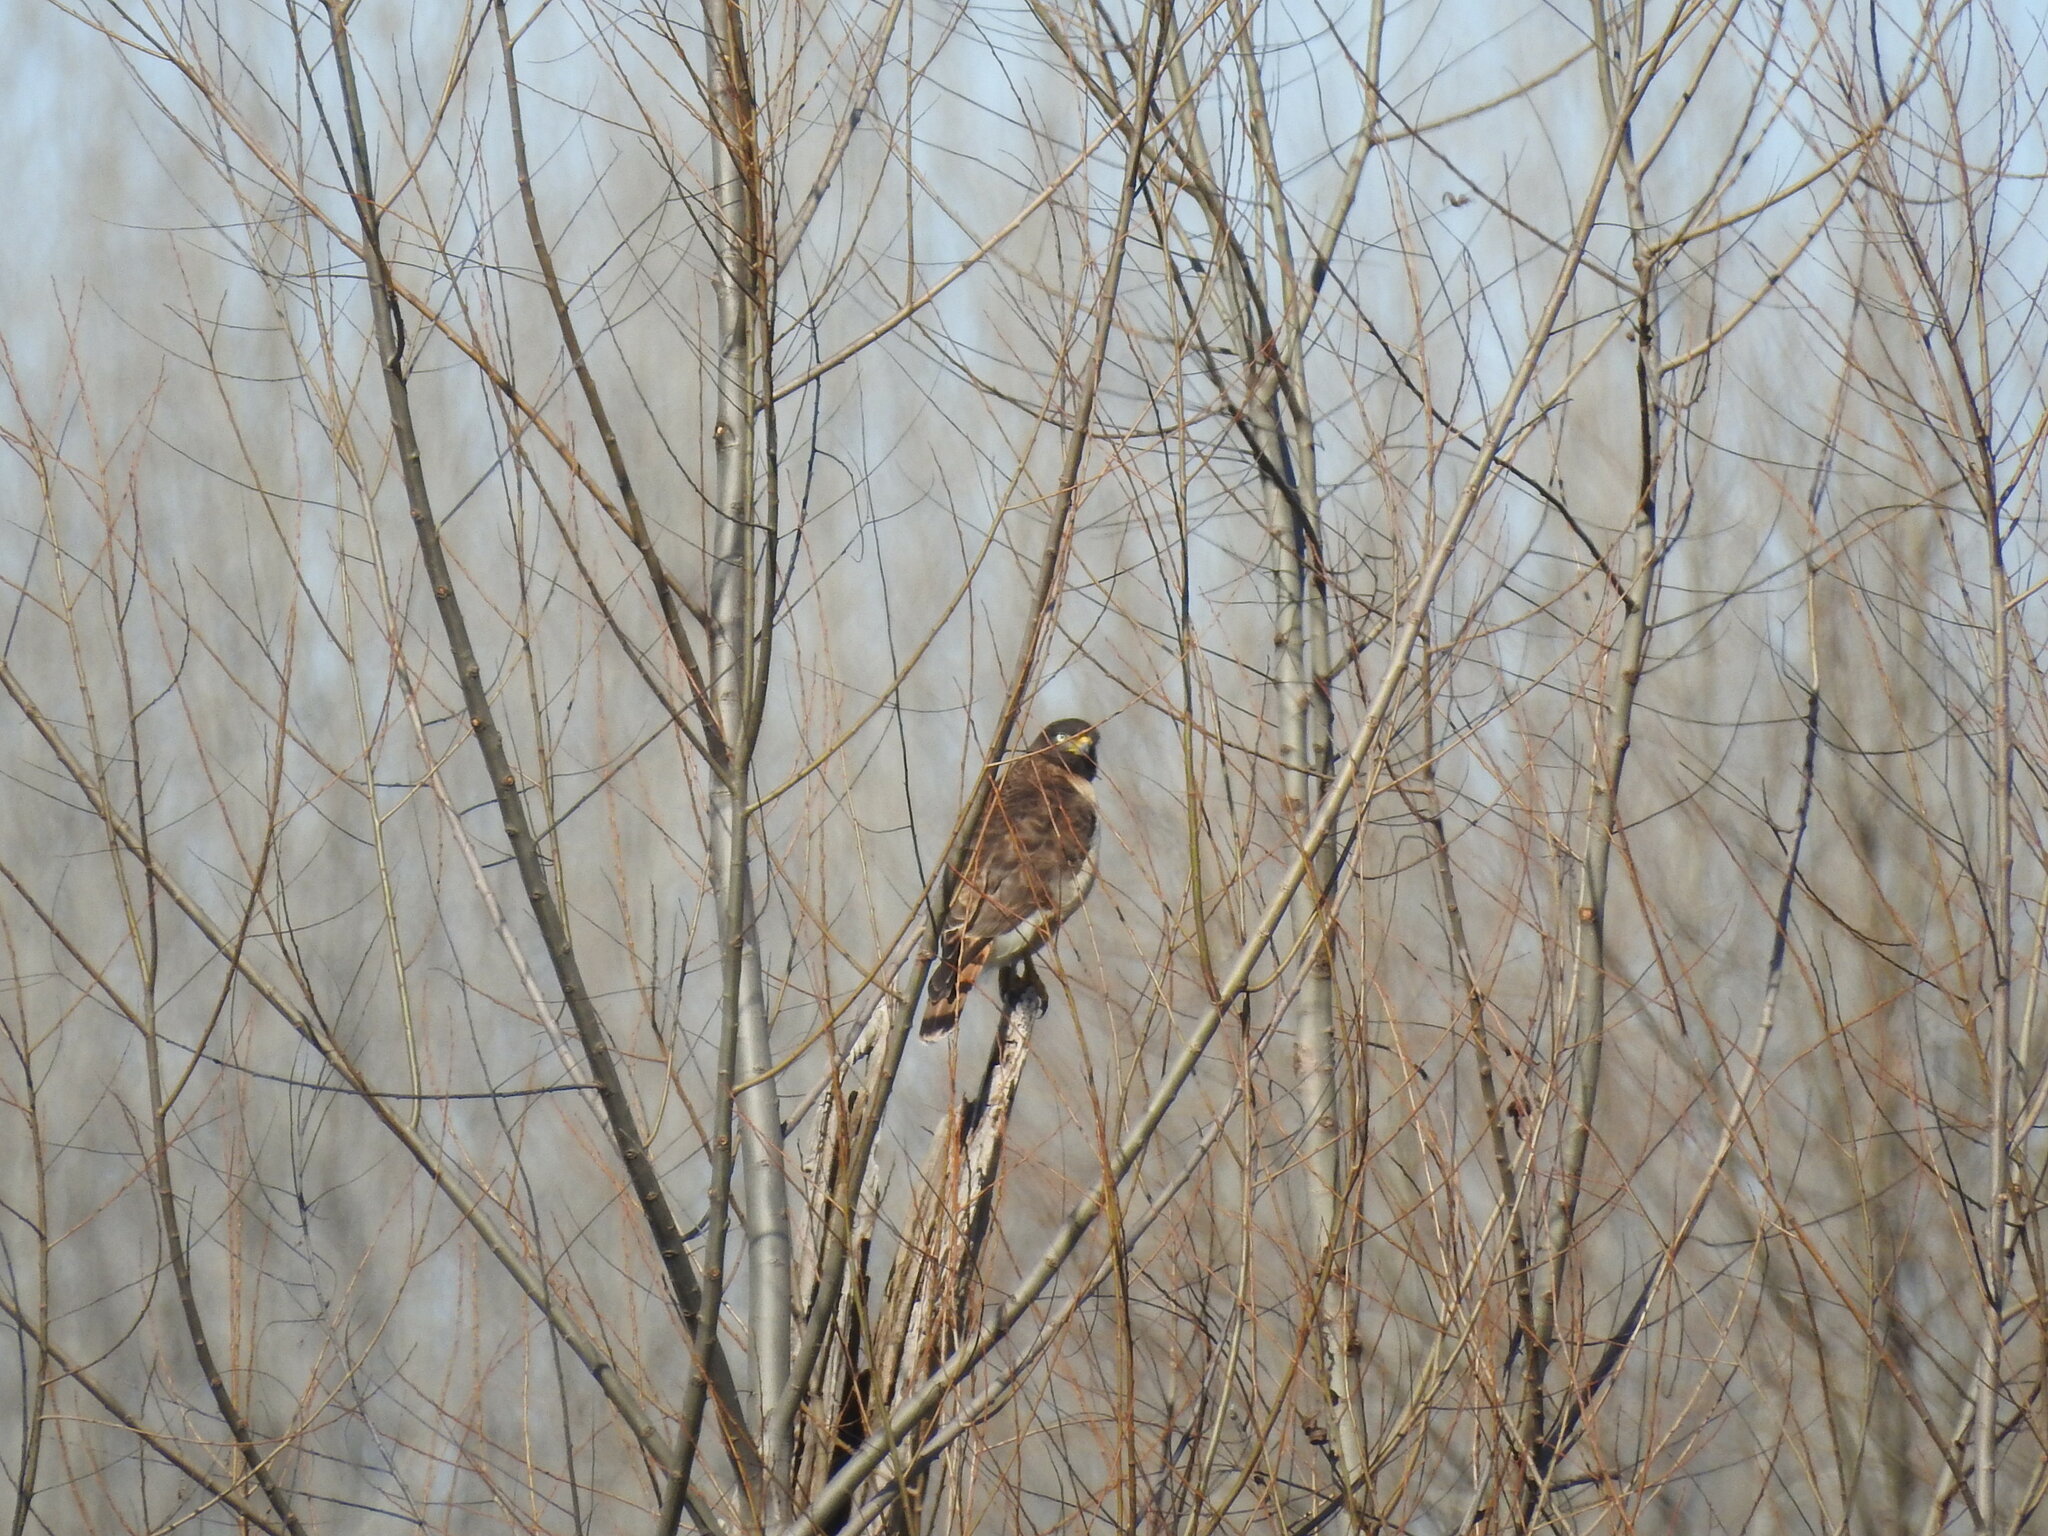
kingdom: Animalia
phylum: Chordata
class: Aves
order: Accipitriformes
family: Accipitridae
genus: Rupornis
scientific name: Rupornis magnirostris
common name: Roadside hawk
